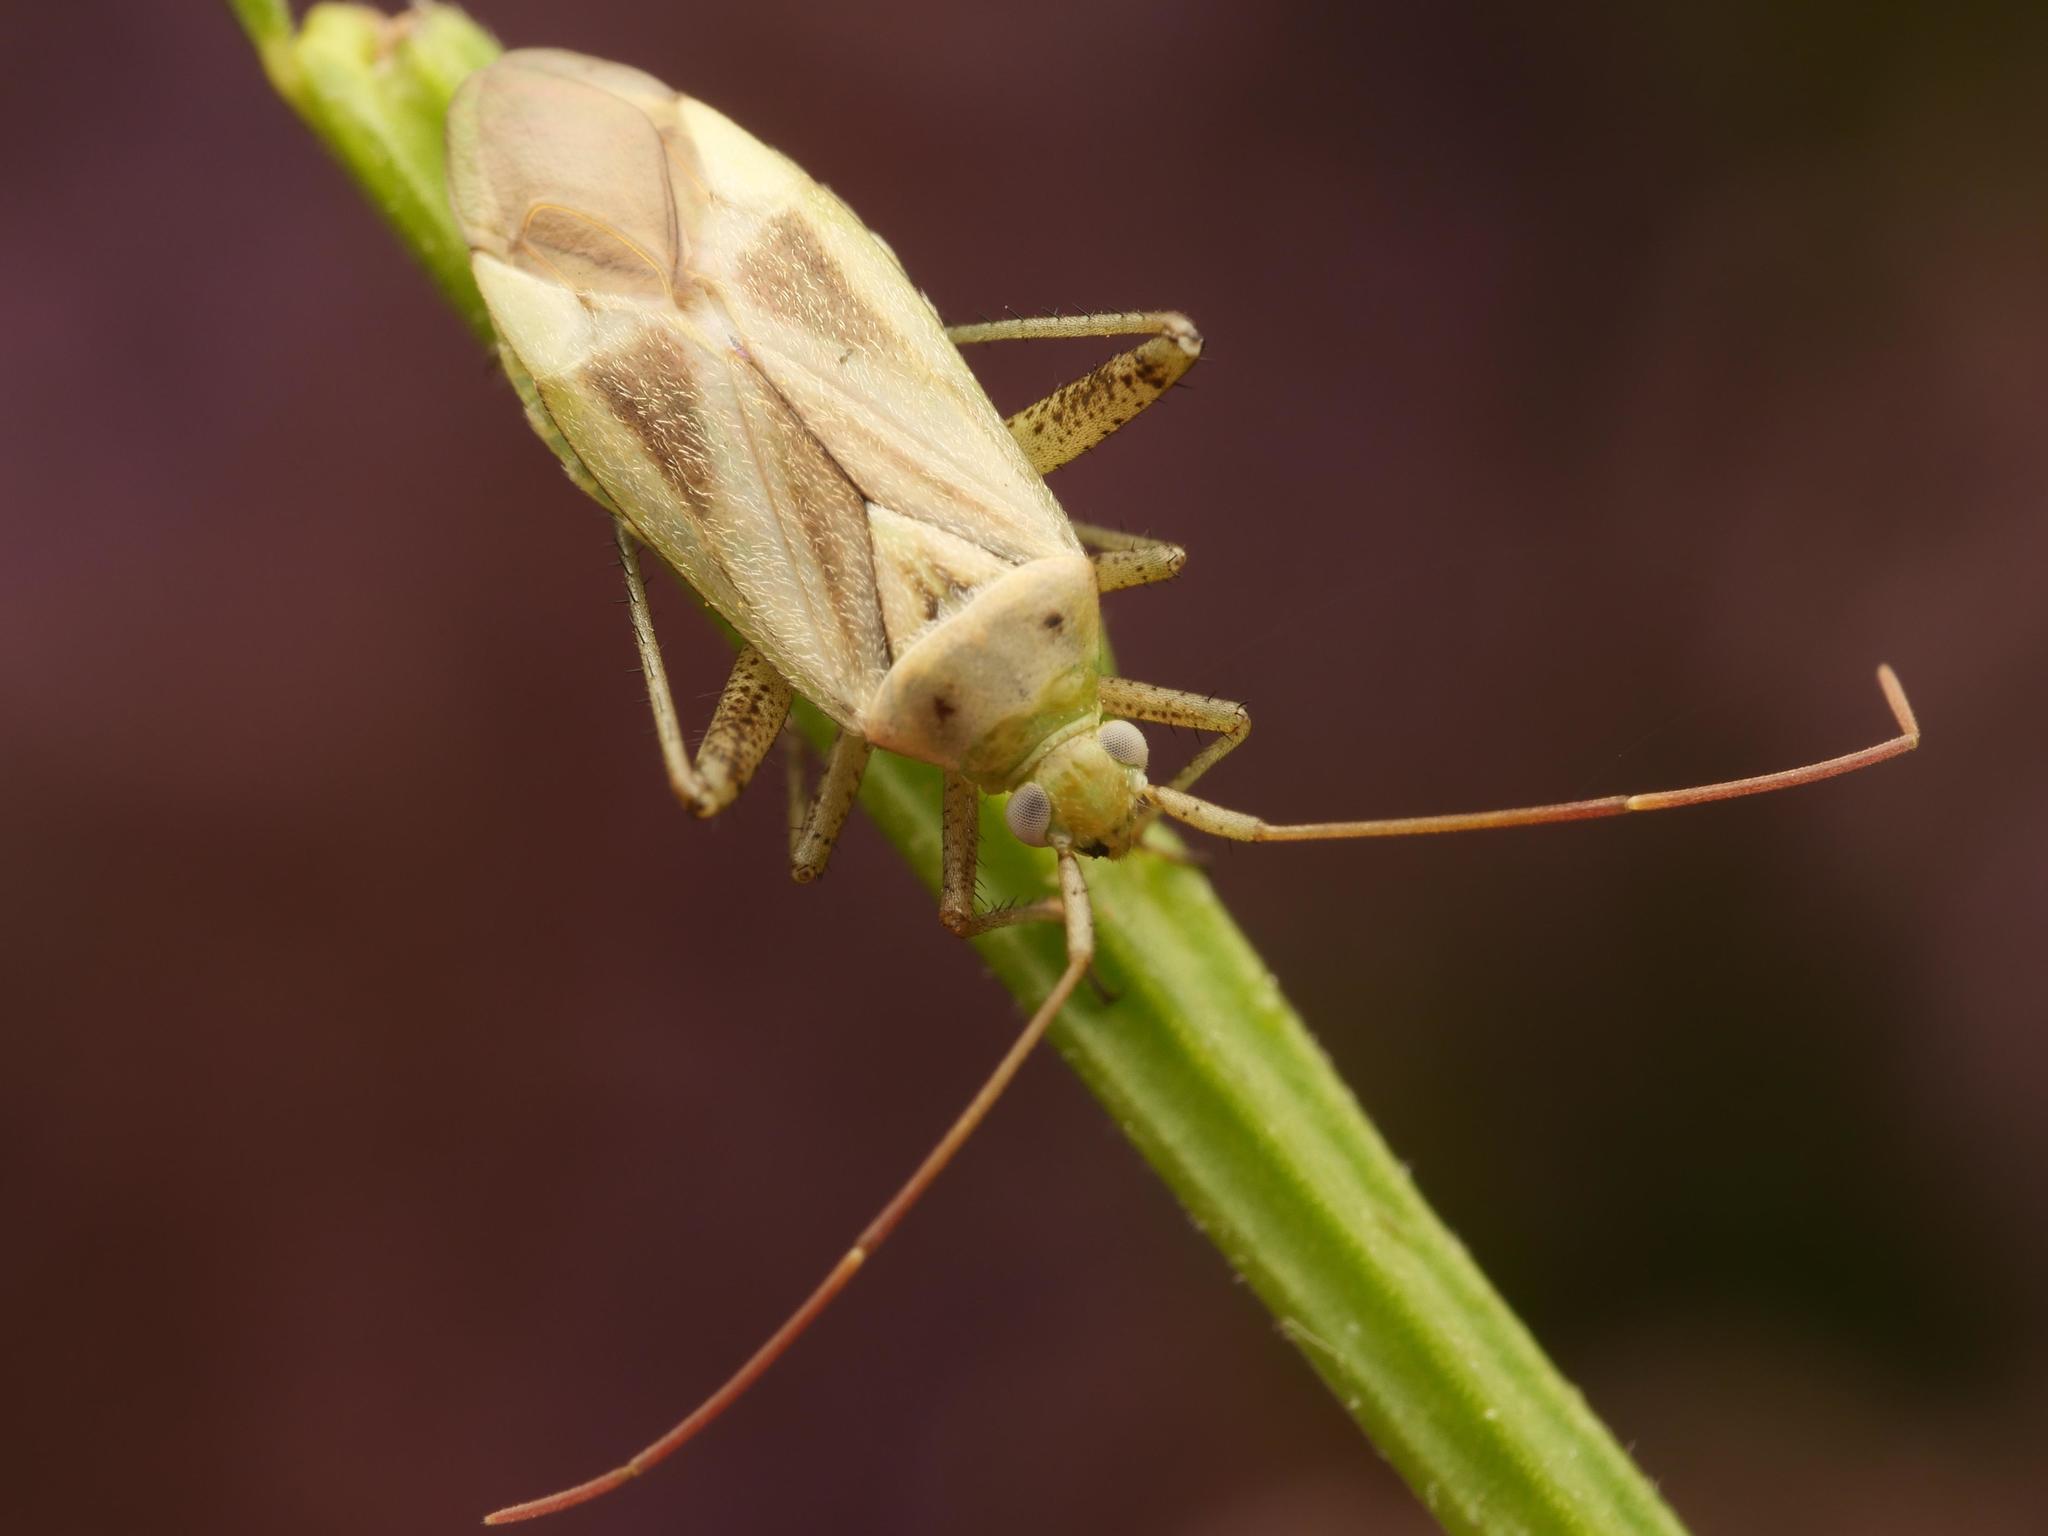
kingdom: Animalia
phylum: Arthropoda
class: Insecta
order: Hemiptera
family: Miridae
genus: Adelphocoris
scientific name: Adelphocoris lineolatus
